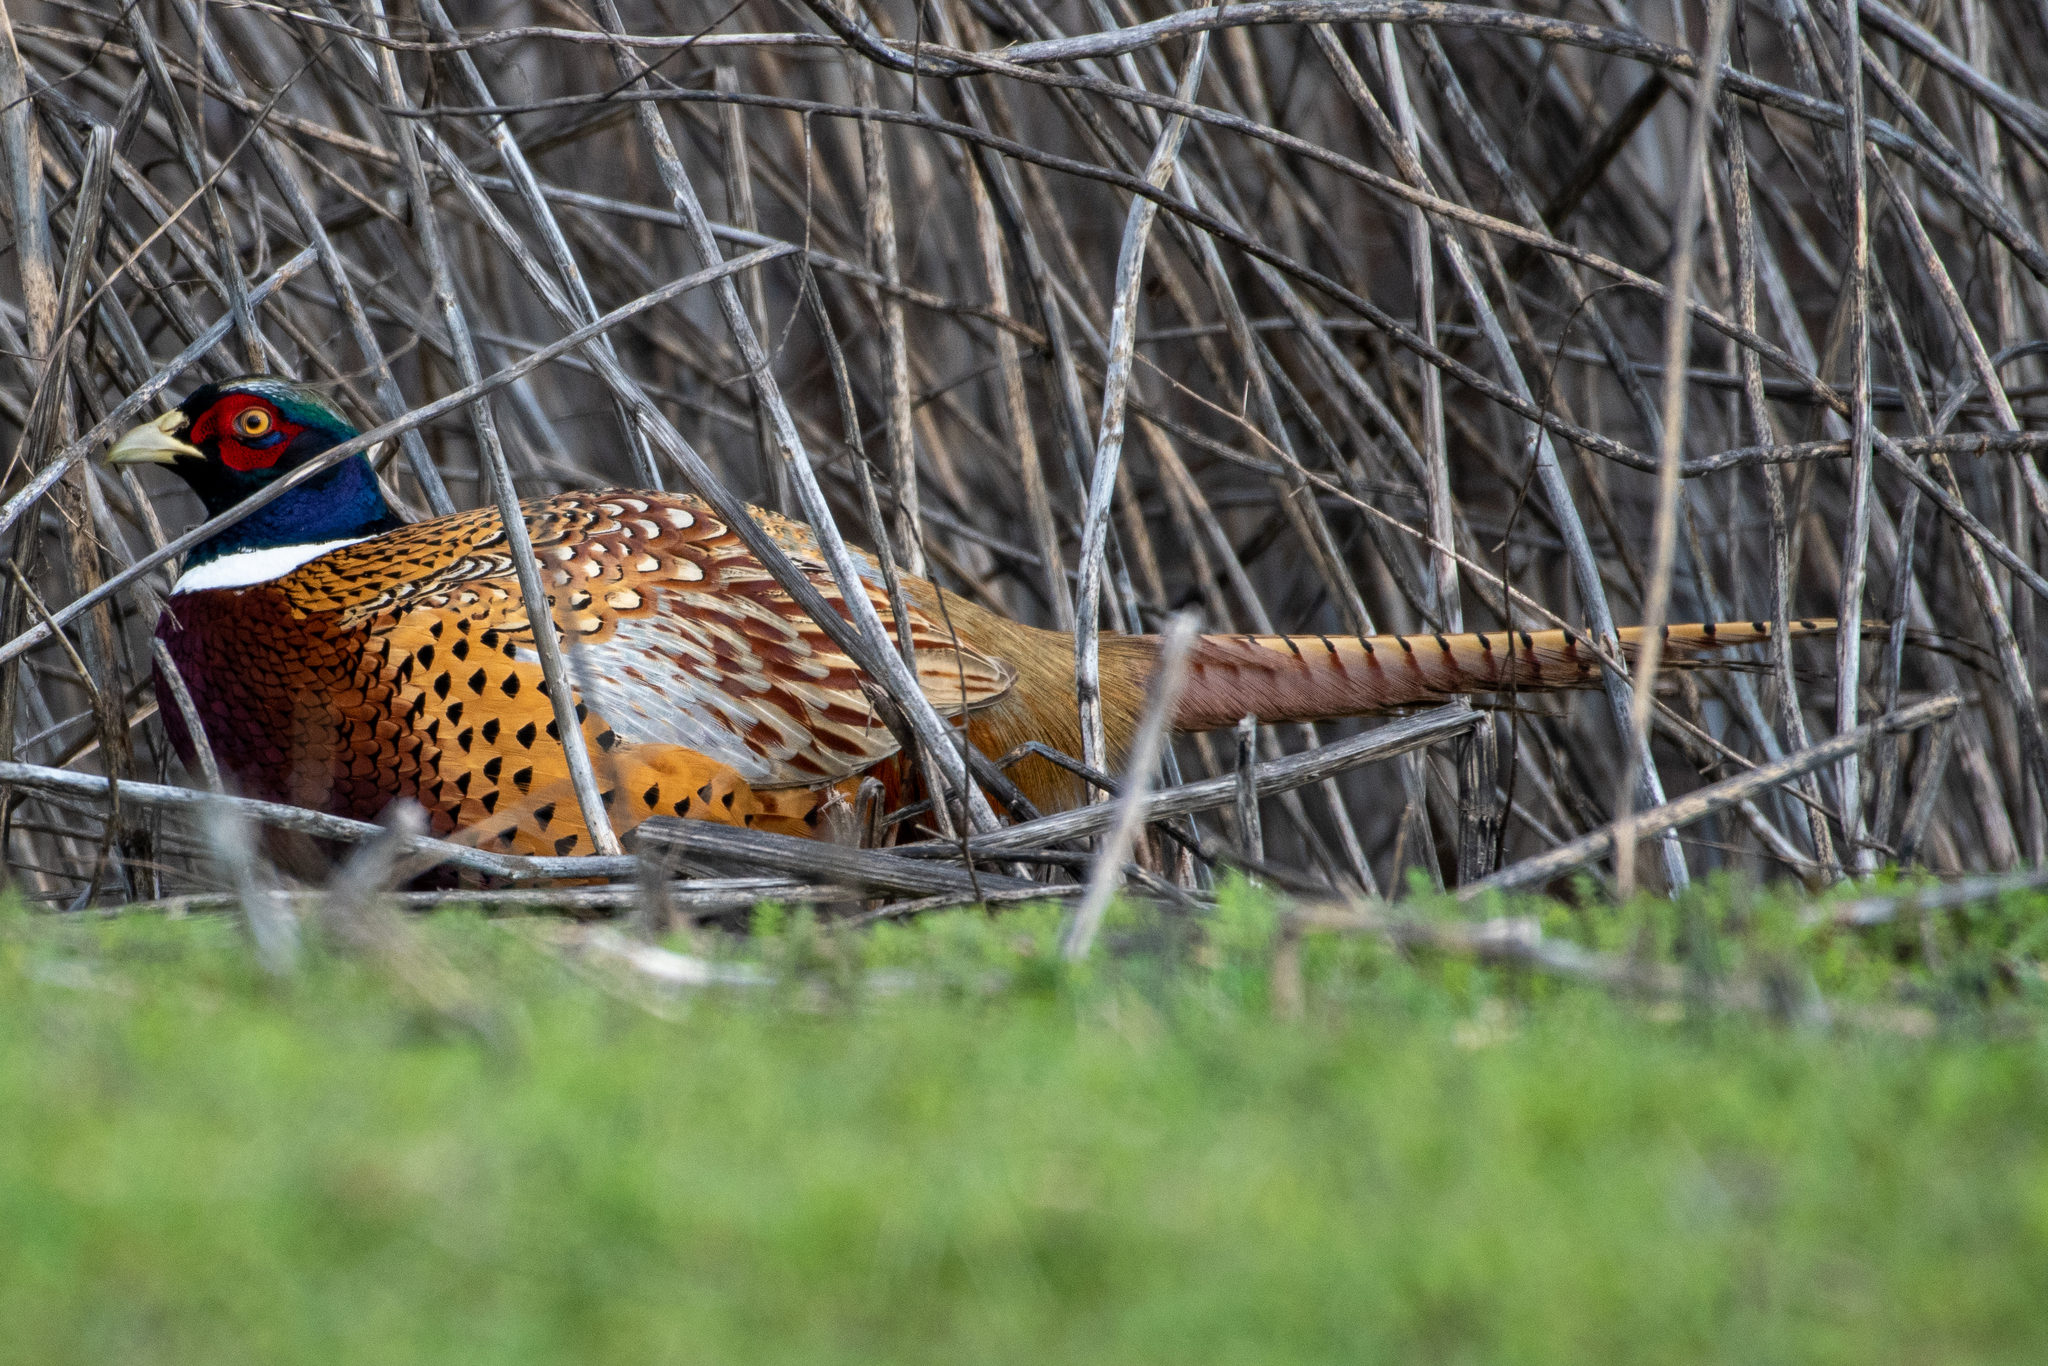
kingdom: Animalia
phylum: Chordata
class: Aves
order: Galliformes
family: Phasianidae
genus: Phasianus
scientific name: Phasianus colchicus
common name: Common pheasant
